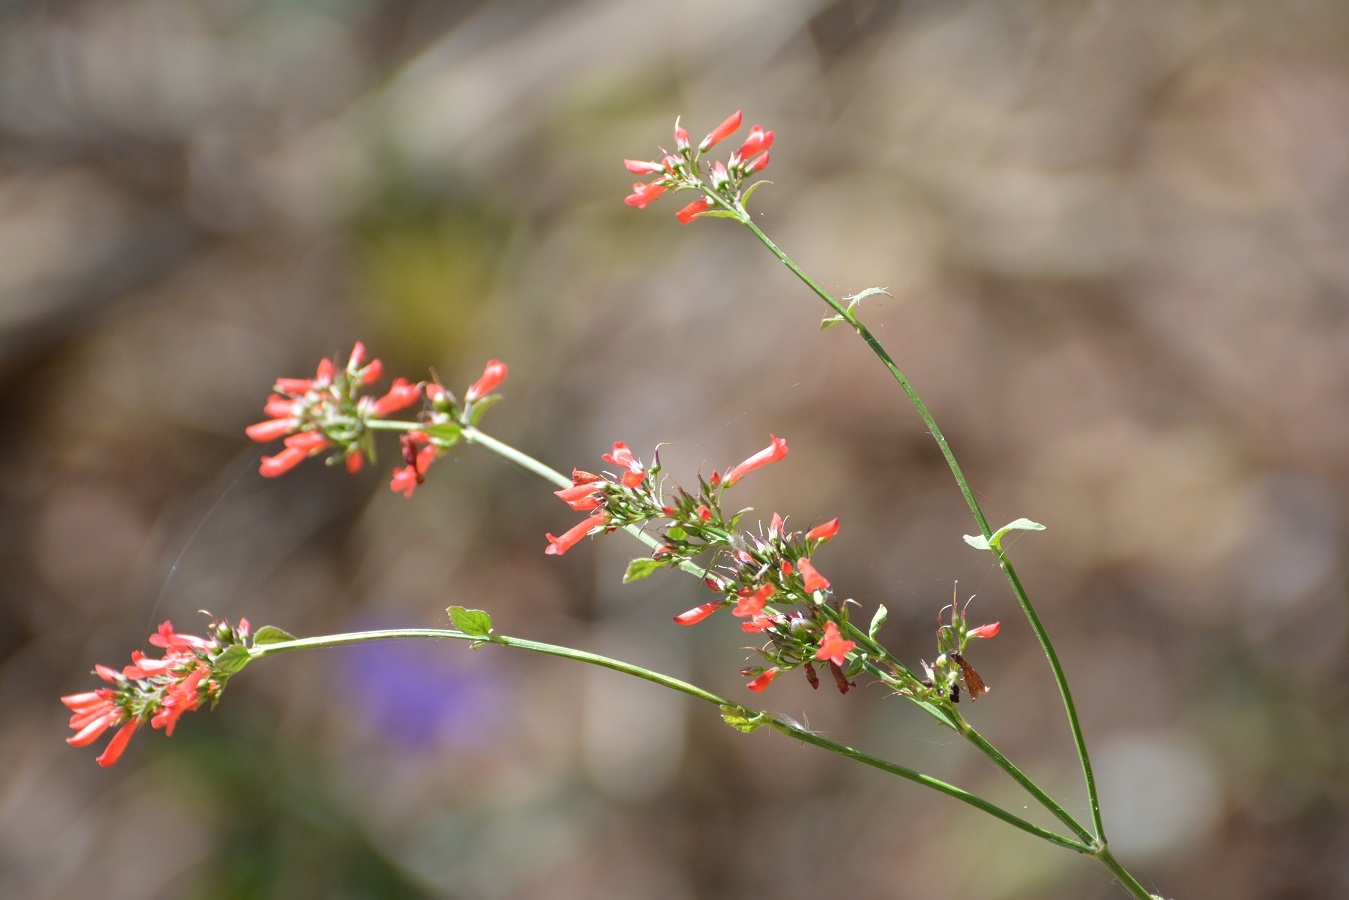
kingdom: Plantae
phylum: Tracheophyta
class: Magnoliopsida
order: Lamiales
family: Plantaginaceae
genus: Russelia
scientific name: Russelia sarmentosa
